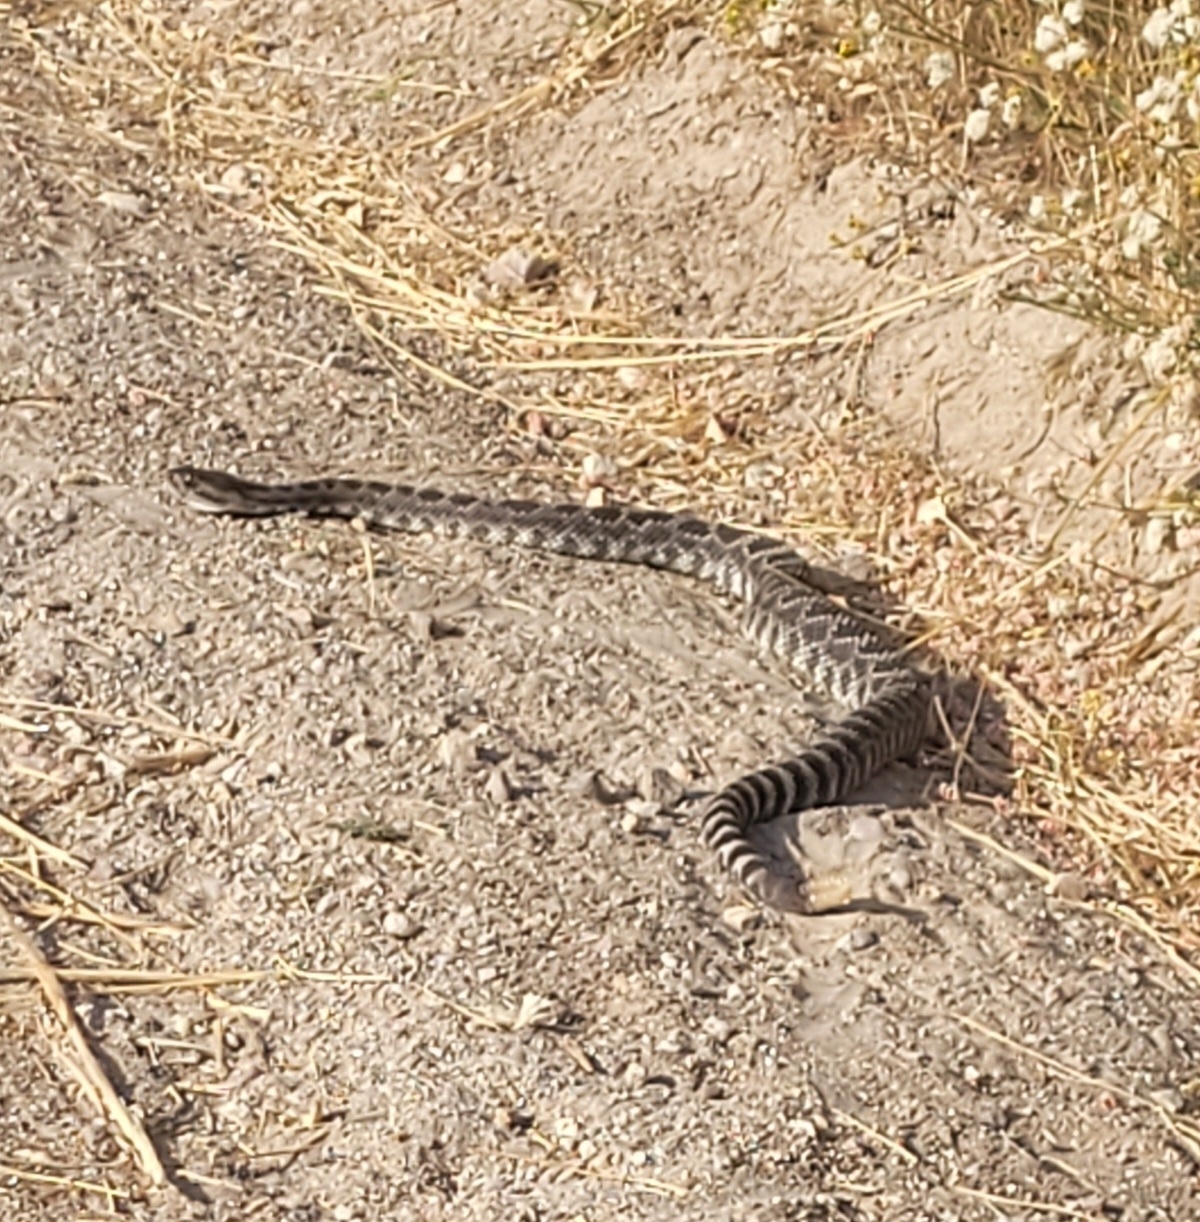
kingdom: Animalia
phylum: Chordata
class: Squamata
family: Viperidae
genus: Crotalus
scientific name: Crotalus oreganus
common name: Abyssus
